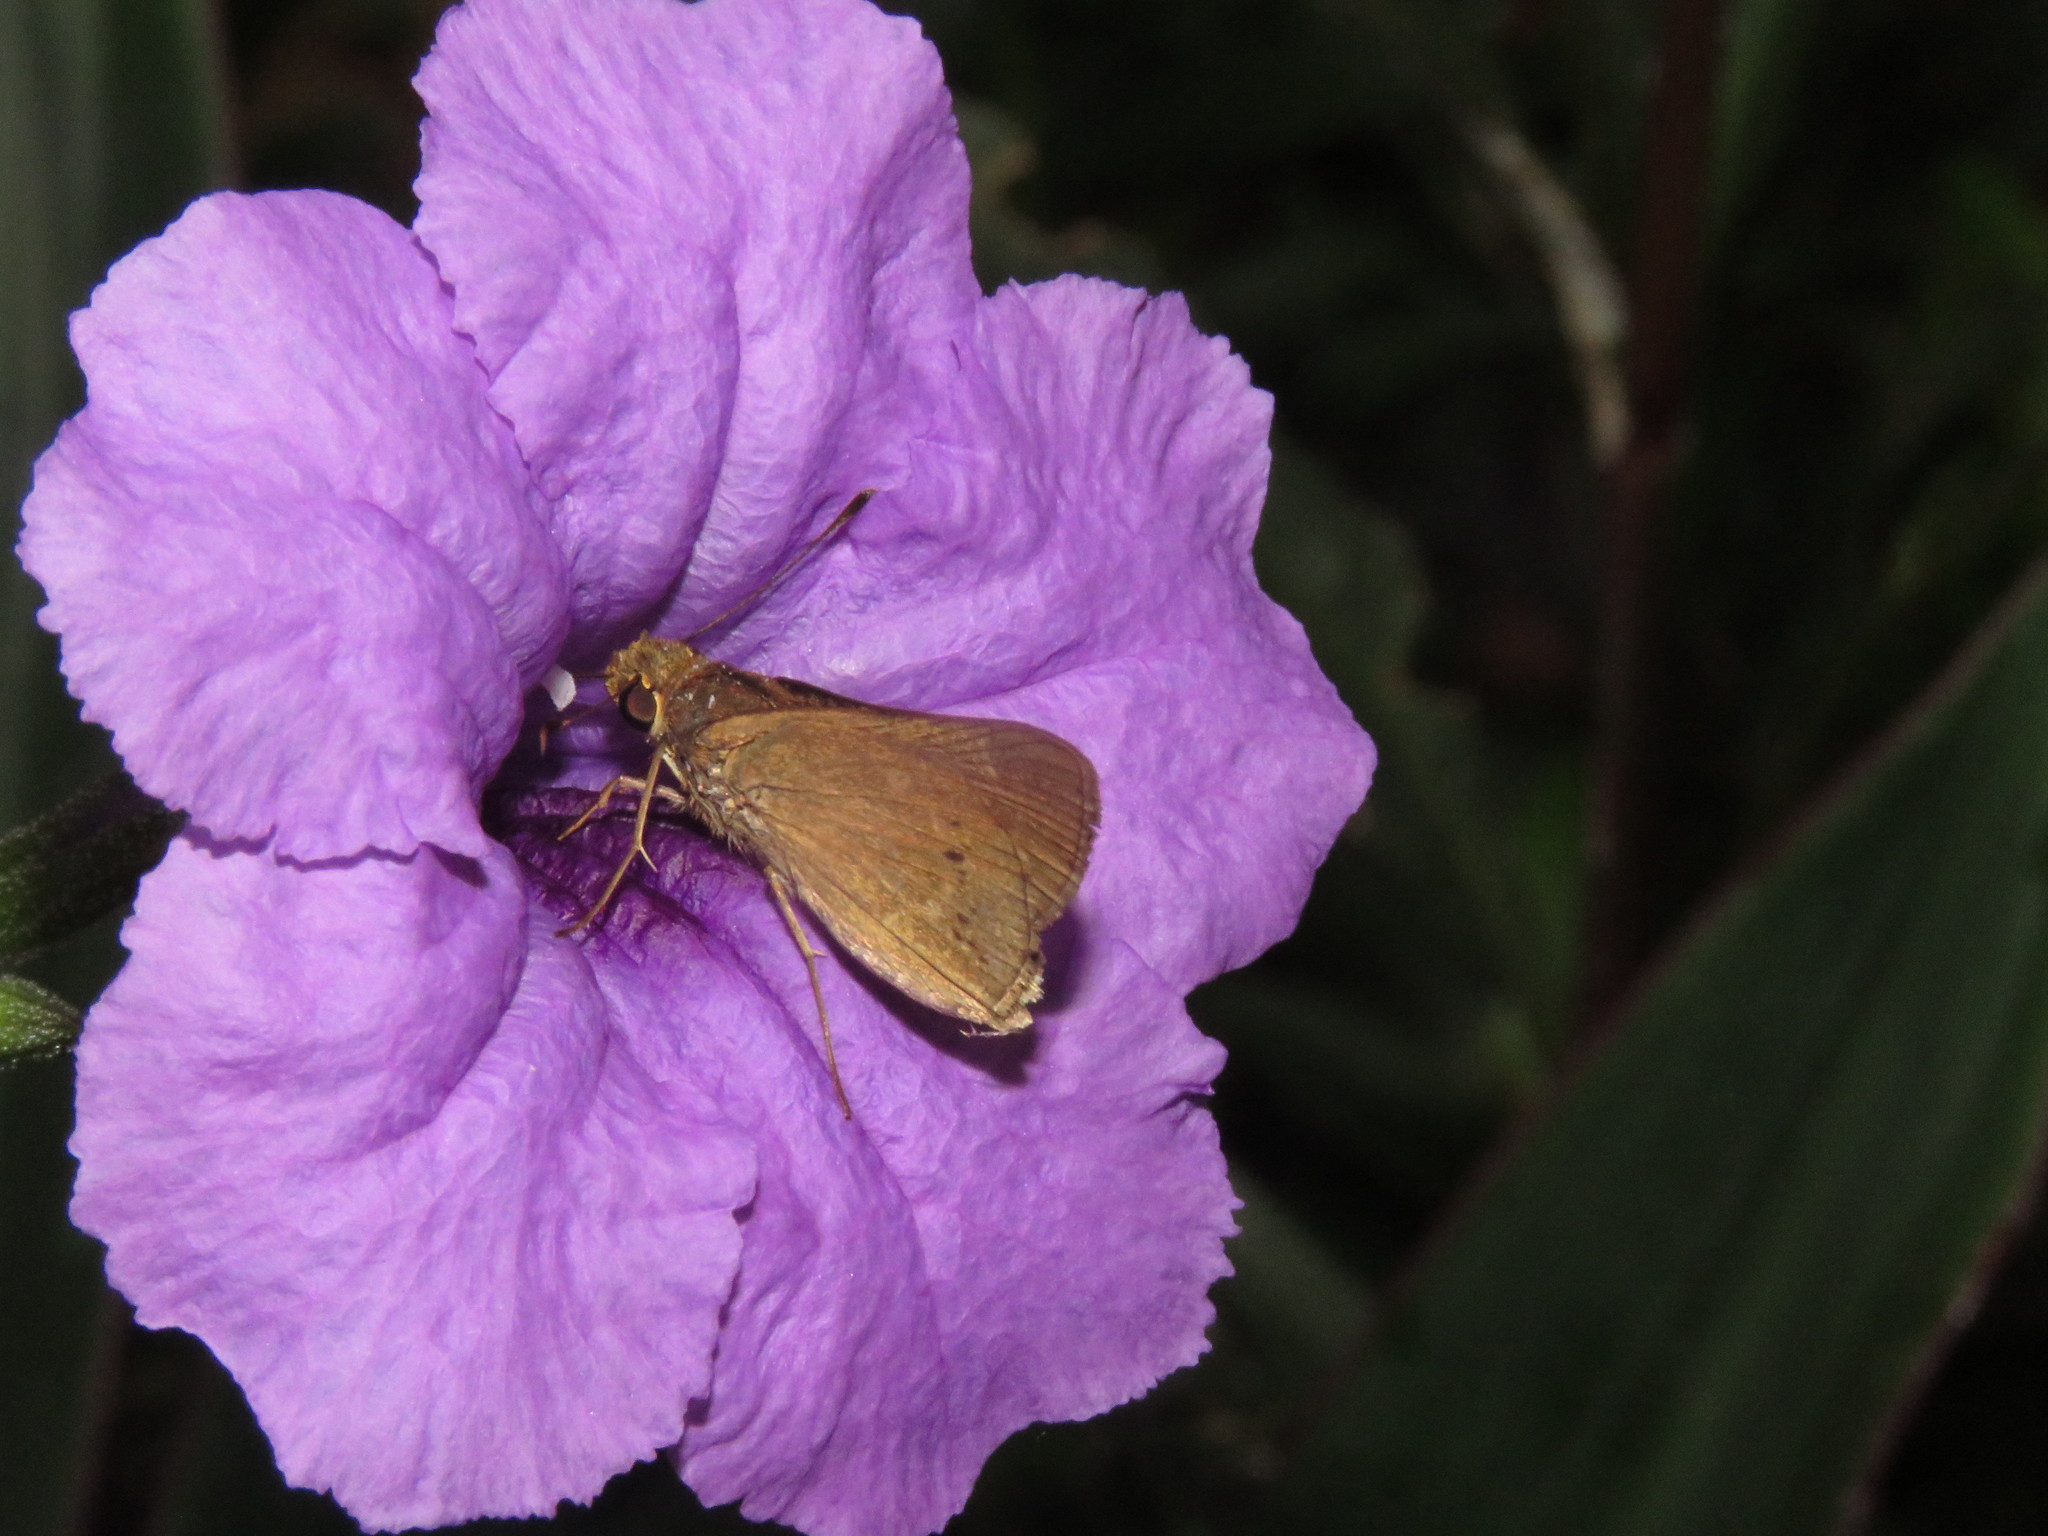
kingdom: Animalia
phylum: Arthropoda
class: Insecta
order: Lepidoptera
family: Hesperiidae
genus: Cymaenes
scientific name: Cymaenes tripunctus
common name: Dingy dotted skipper
